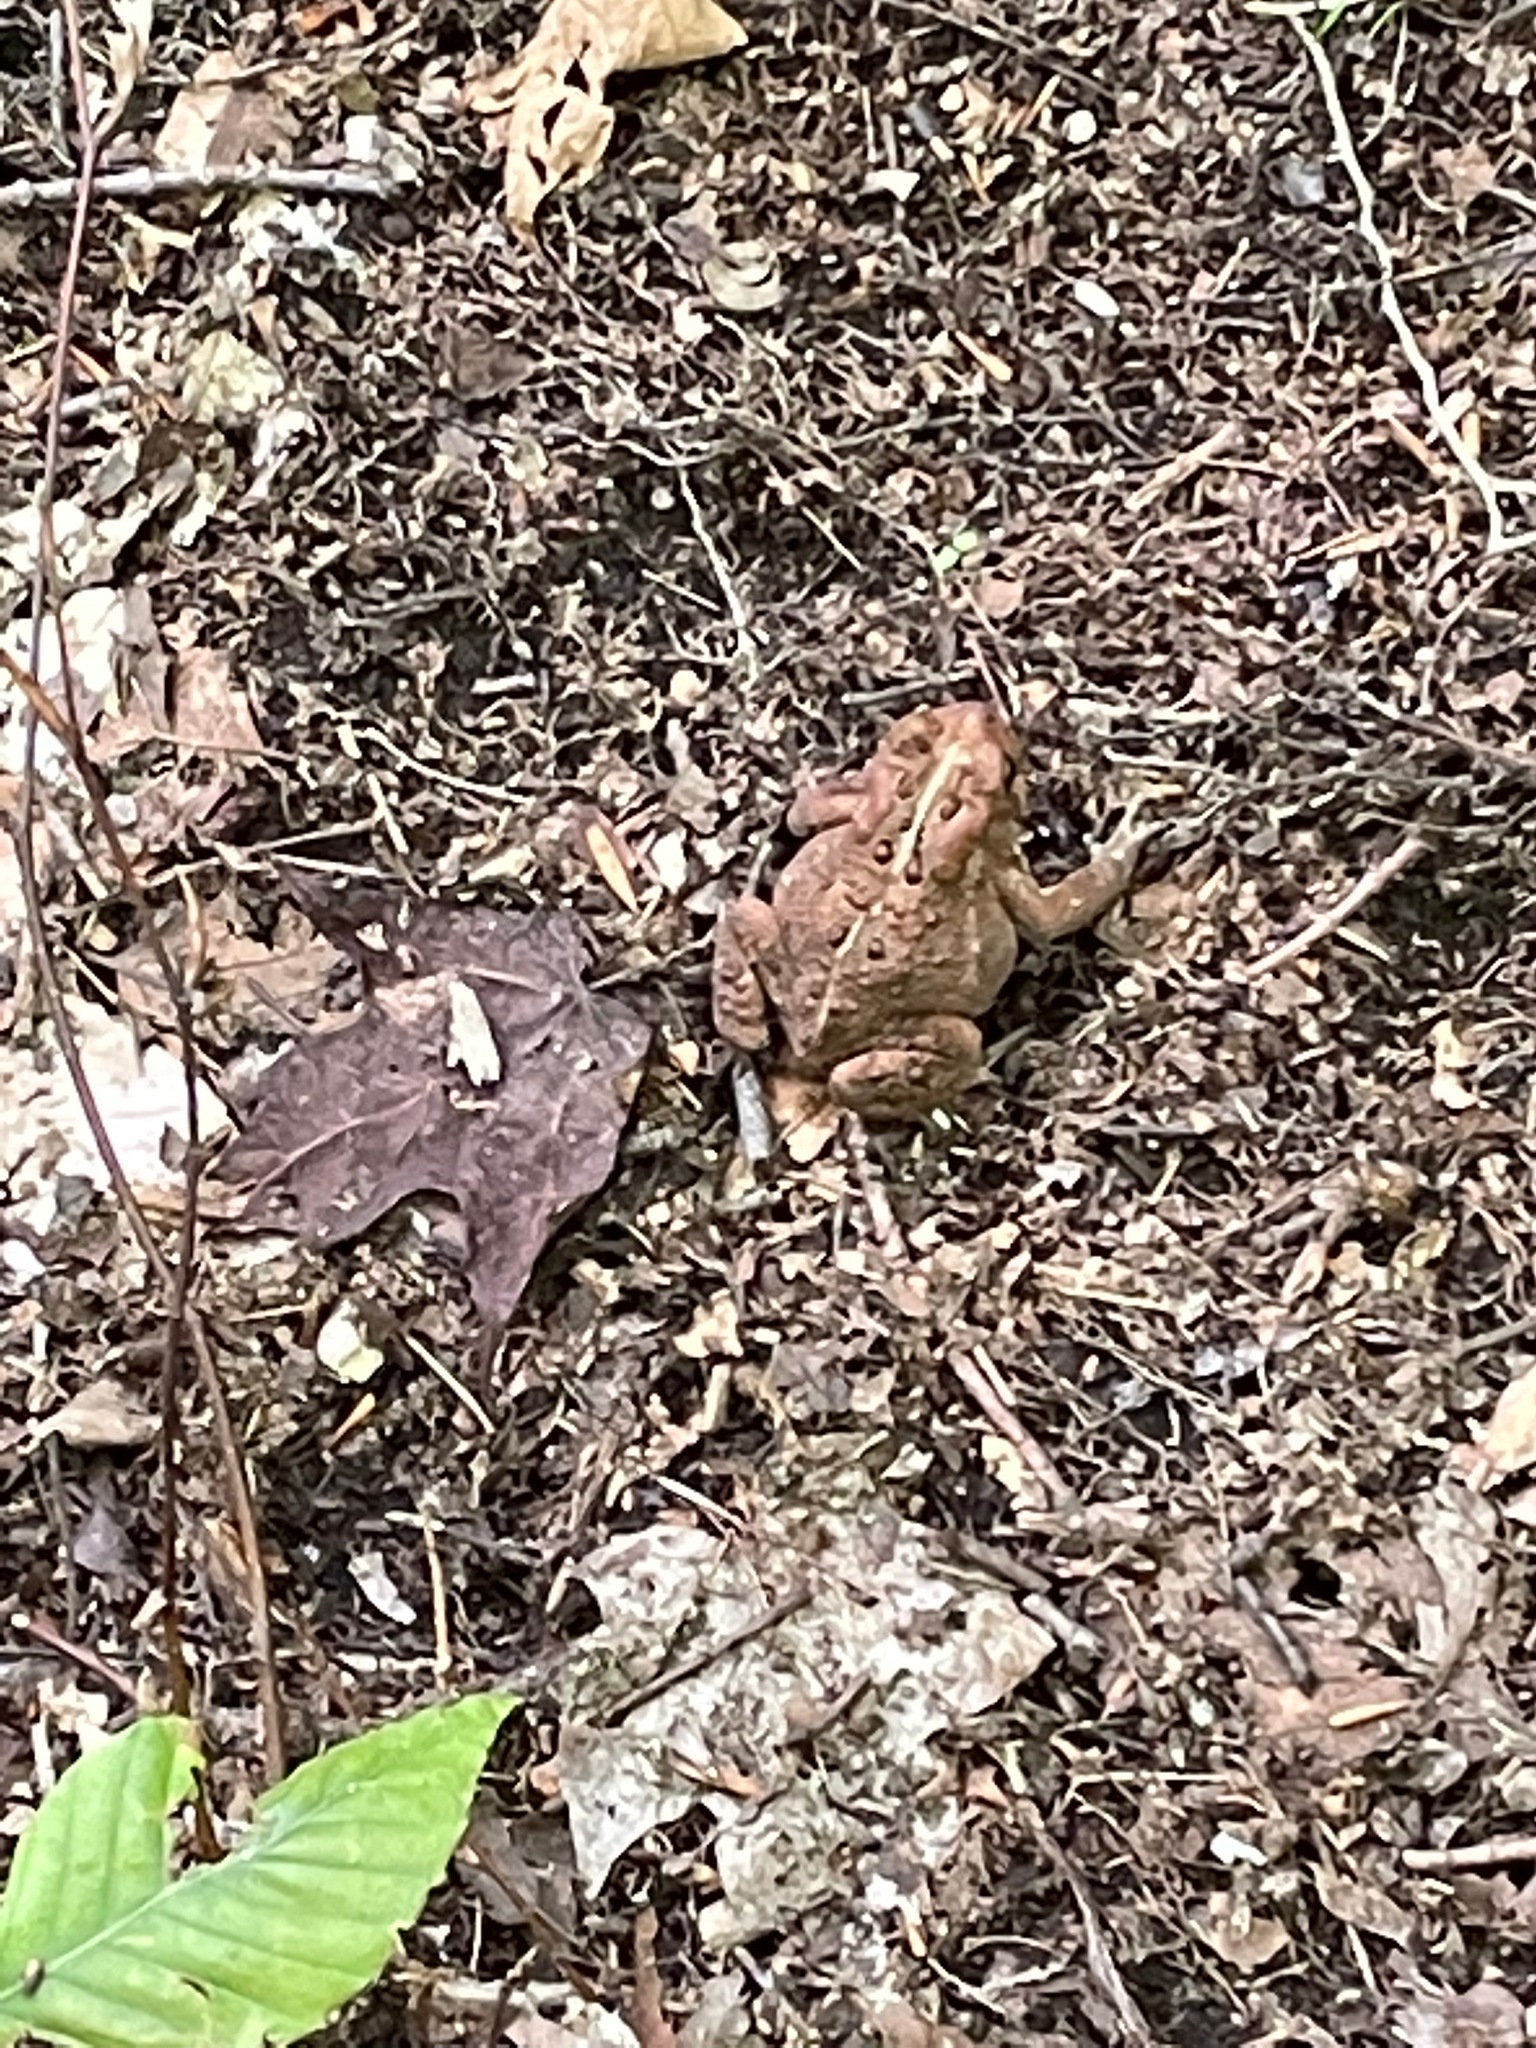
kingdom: Animalia
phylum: Chordata
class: Amphibia
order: Anura
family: Bufonidae
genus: Anaxyrus
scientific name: Anaxyrus americanus
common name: American toad
